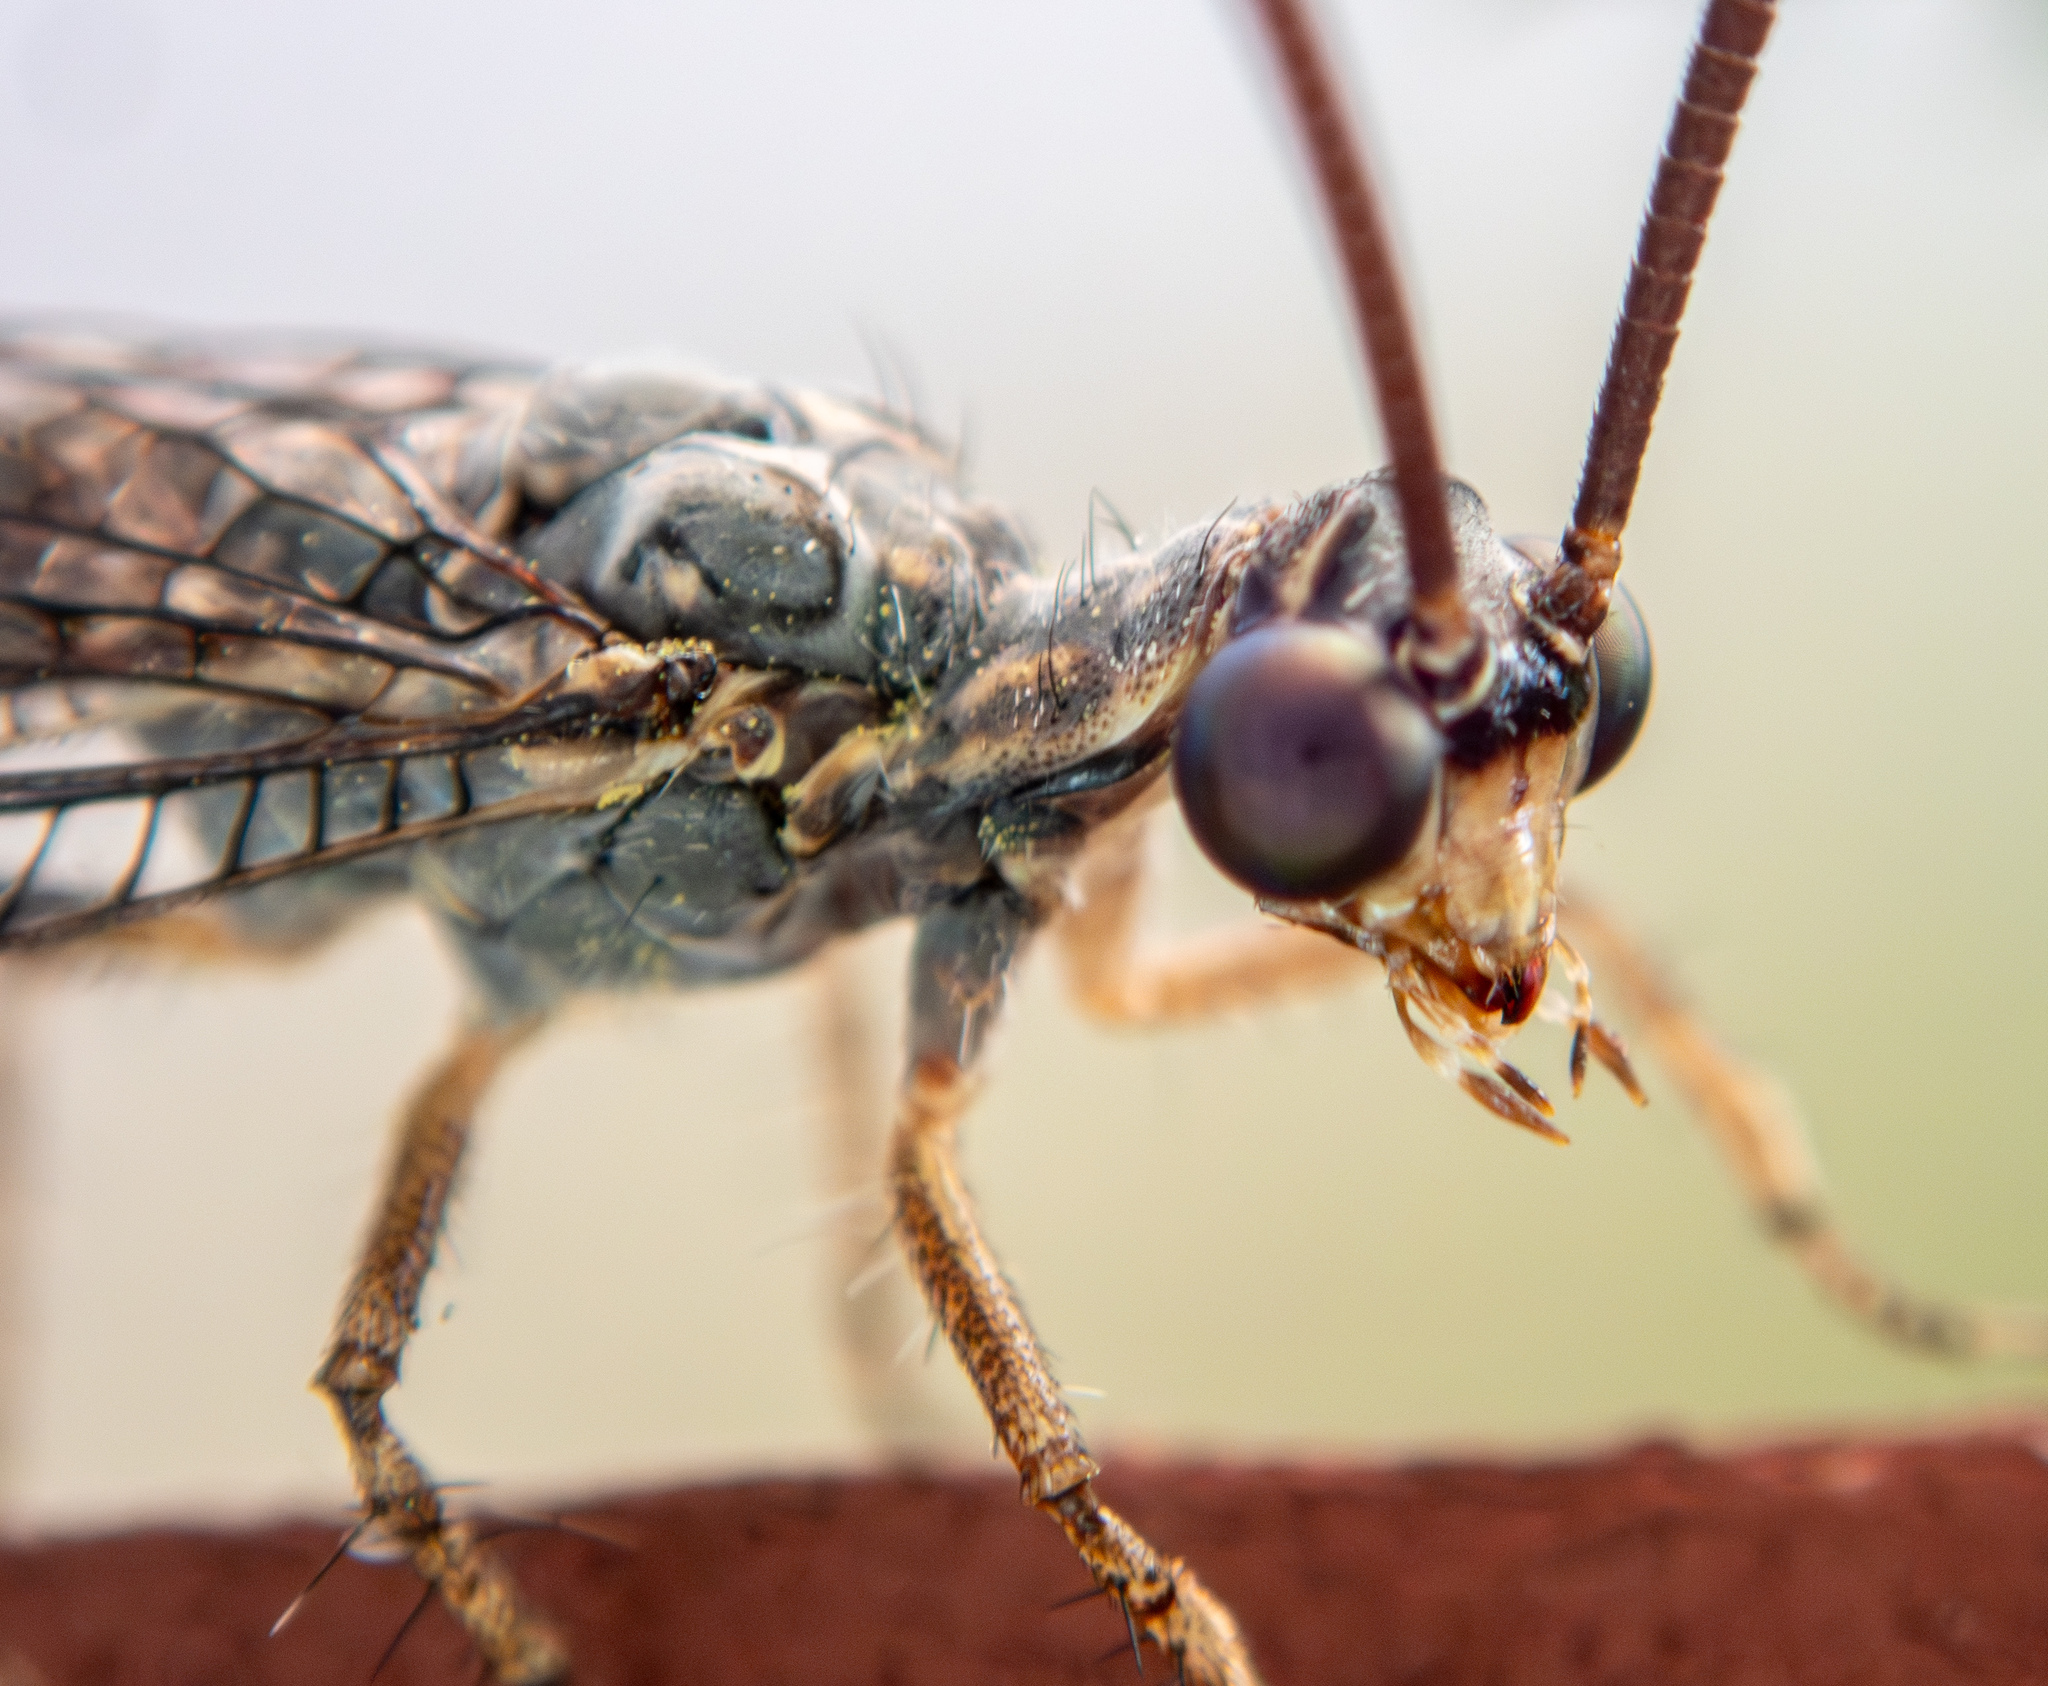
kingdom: Animalia
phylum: Arthropoda
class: Insecta
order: Neuroptera
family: Myrmeleontidae
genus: Brachynemurus
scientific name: Brachynemurus ferox
